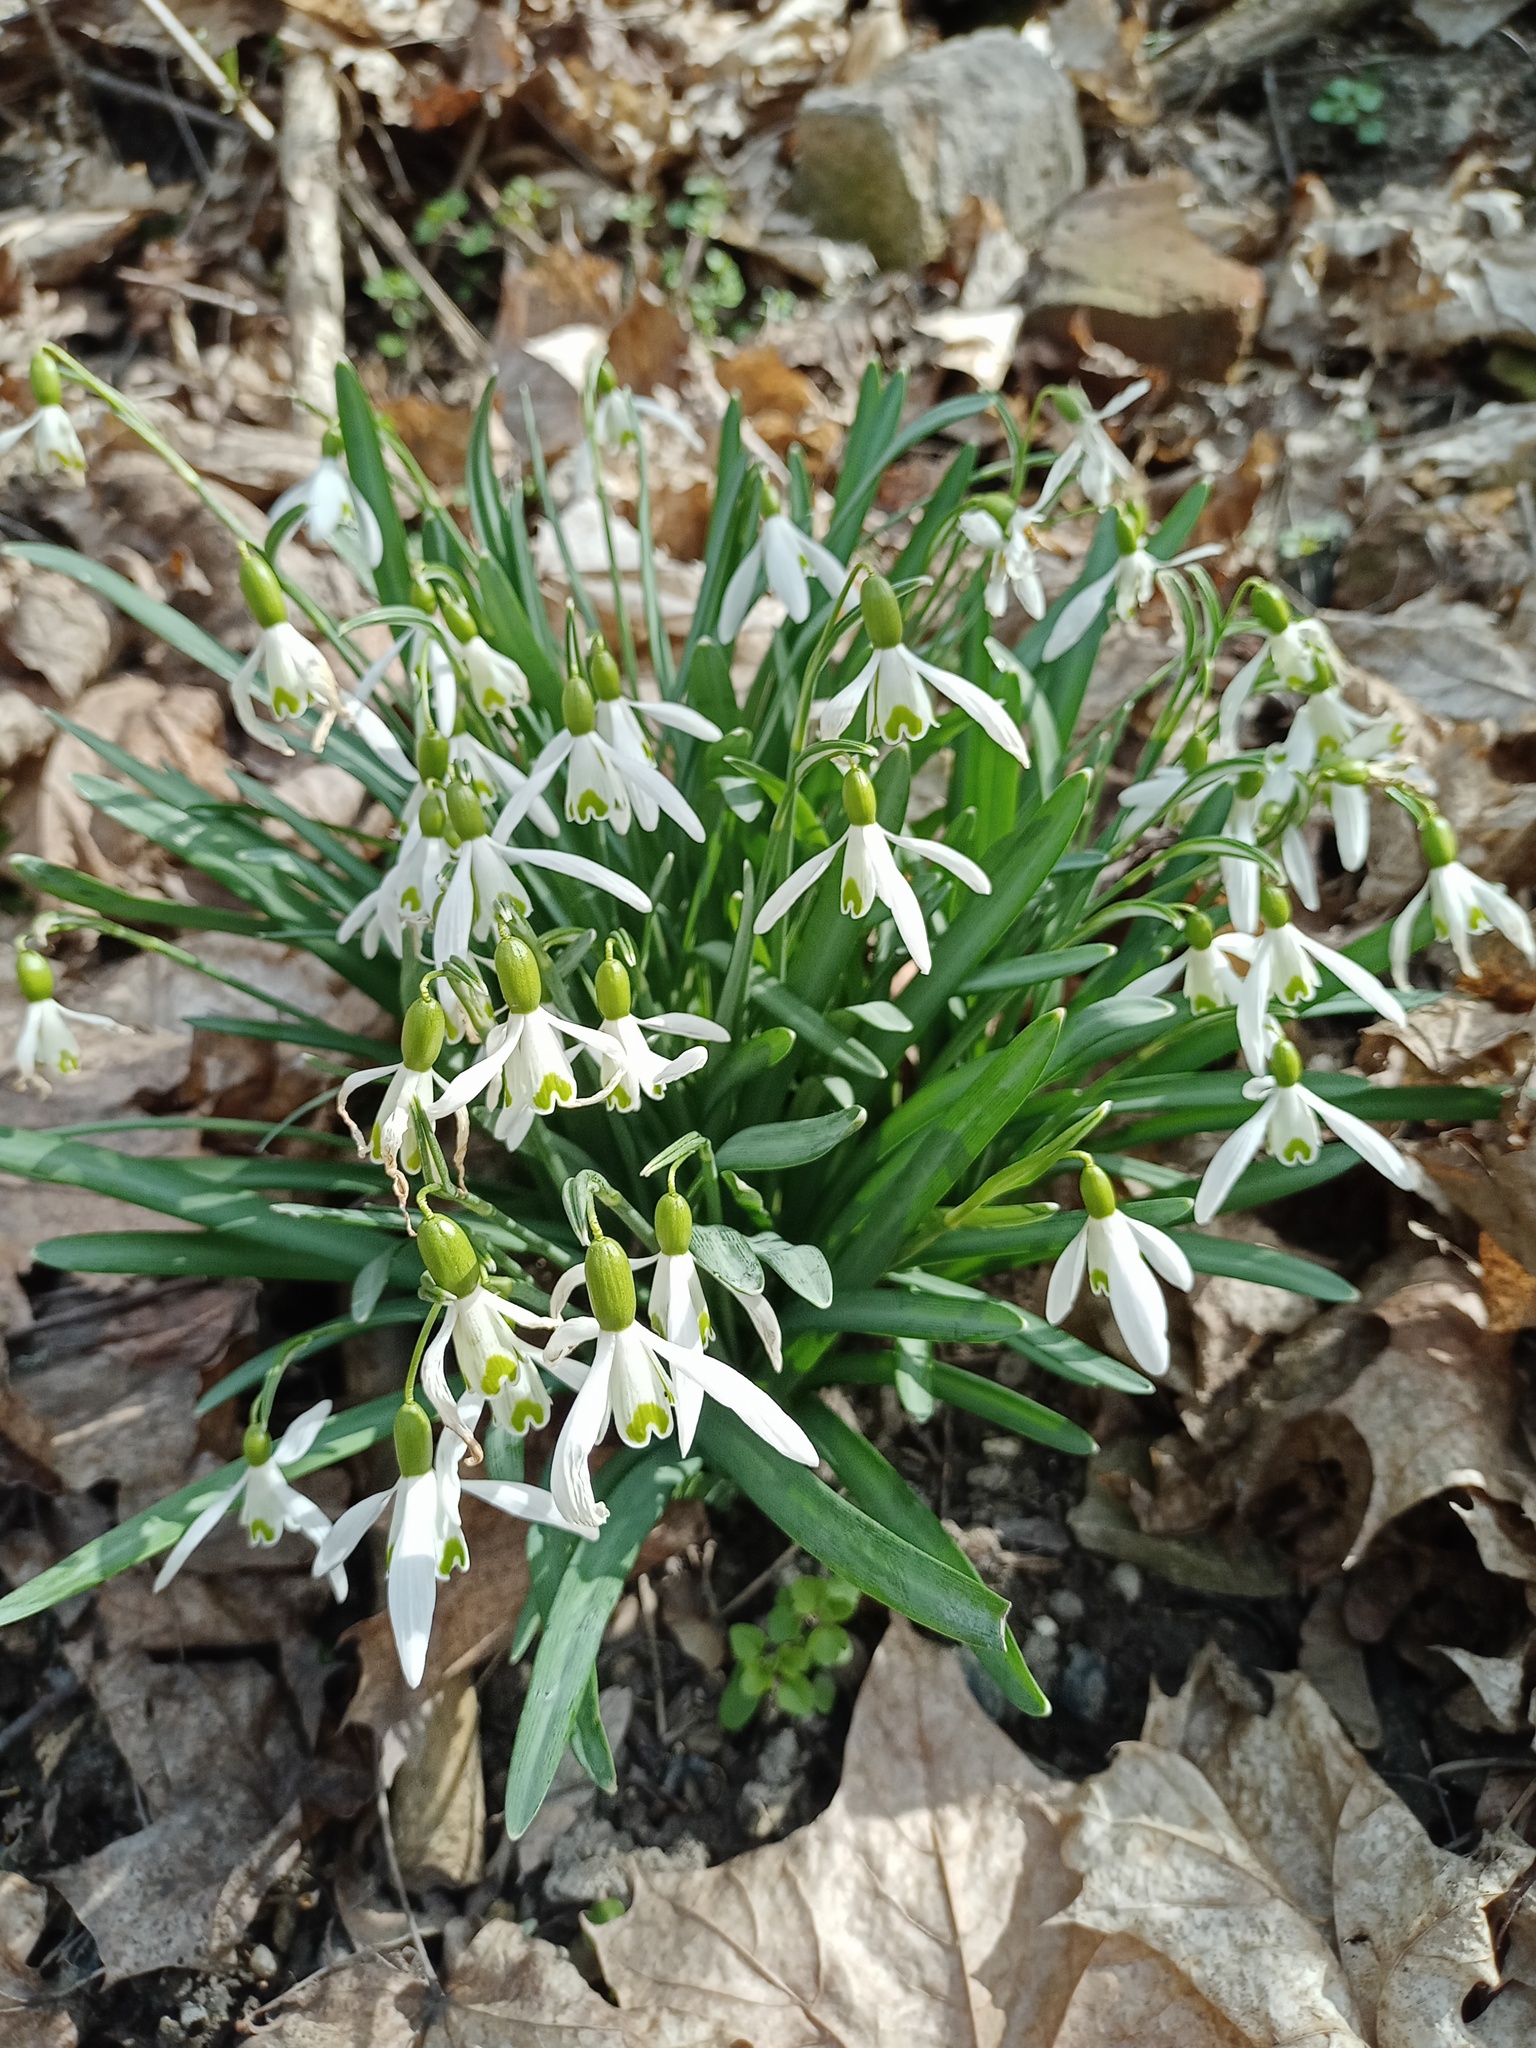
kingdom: Plantae
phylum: Tracheophyta
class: Liliopsida
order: Asparagales
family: Amaryllidaceae
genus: Galanthus
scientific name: Galanthus nivalis
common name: Snowdrop
